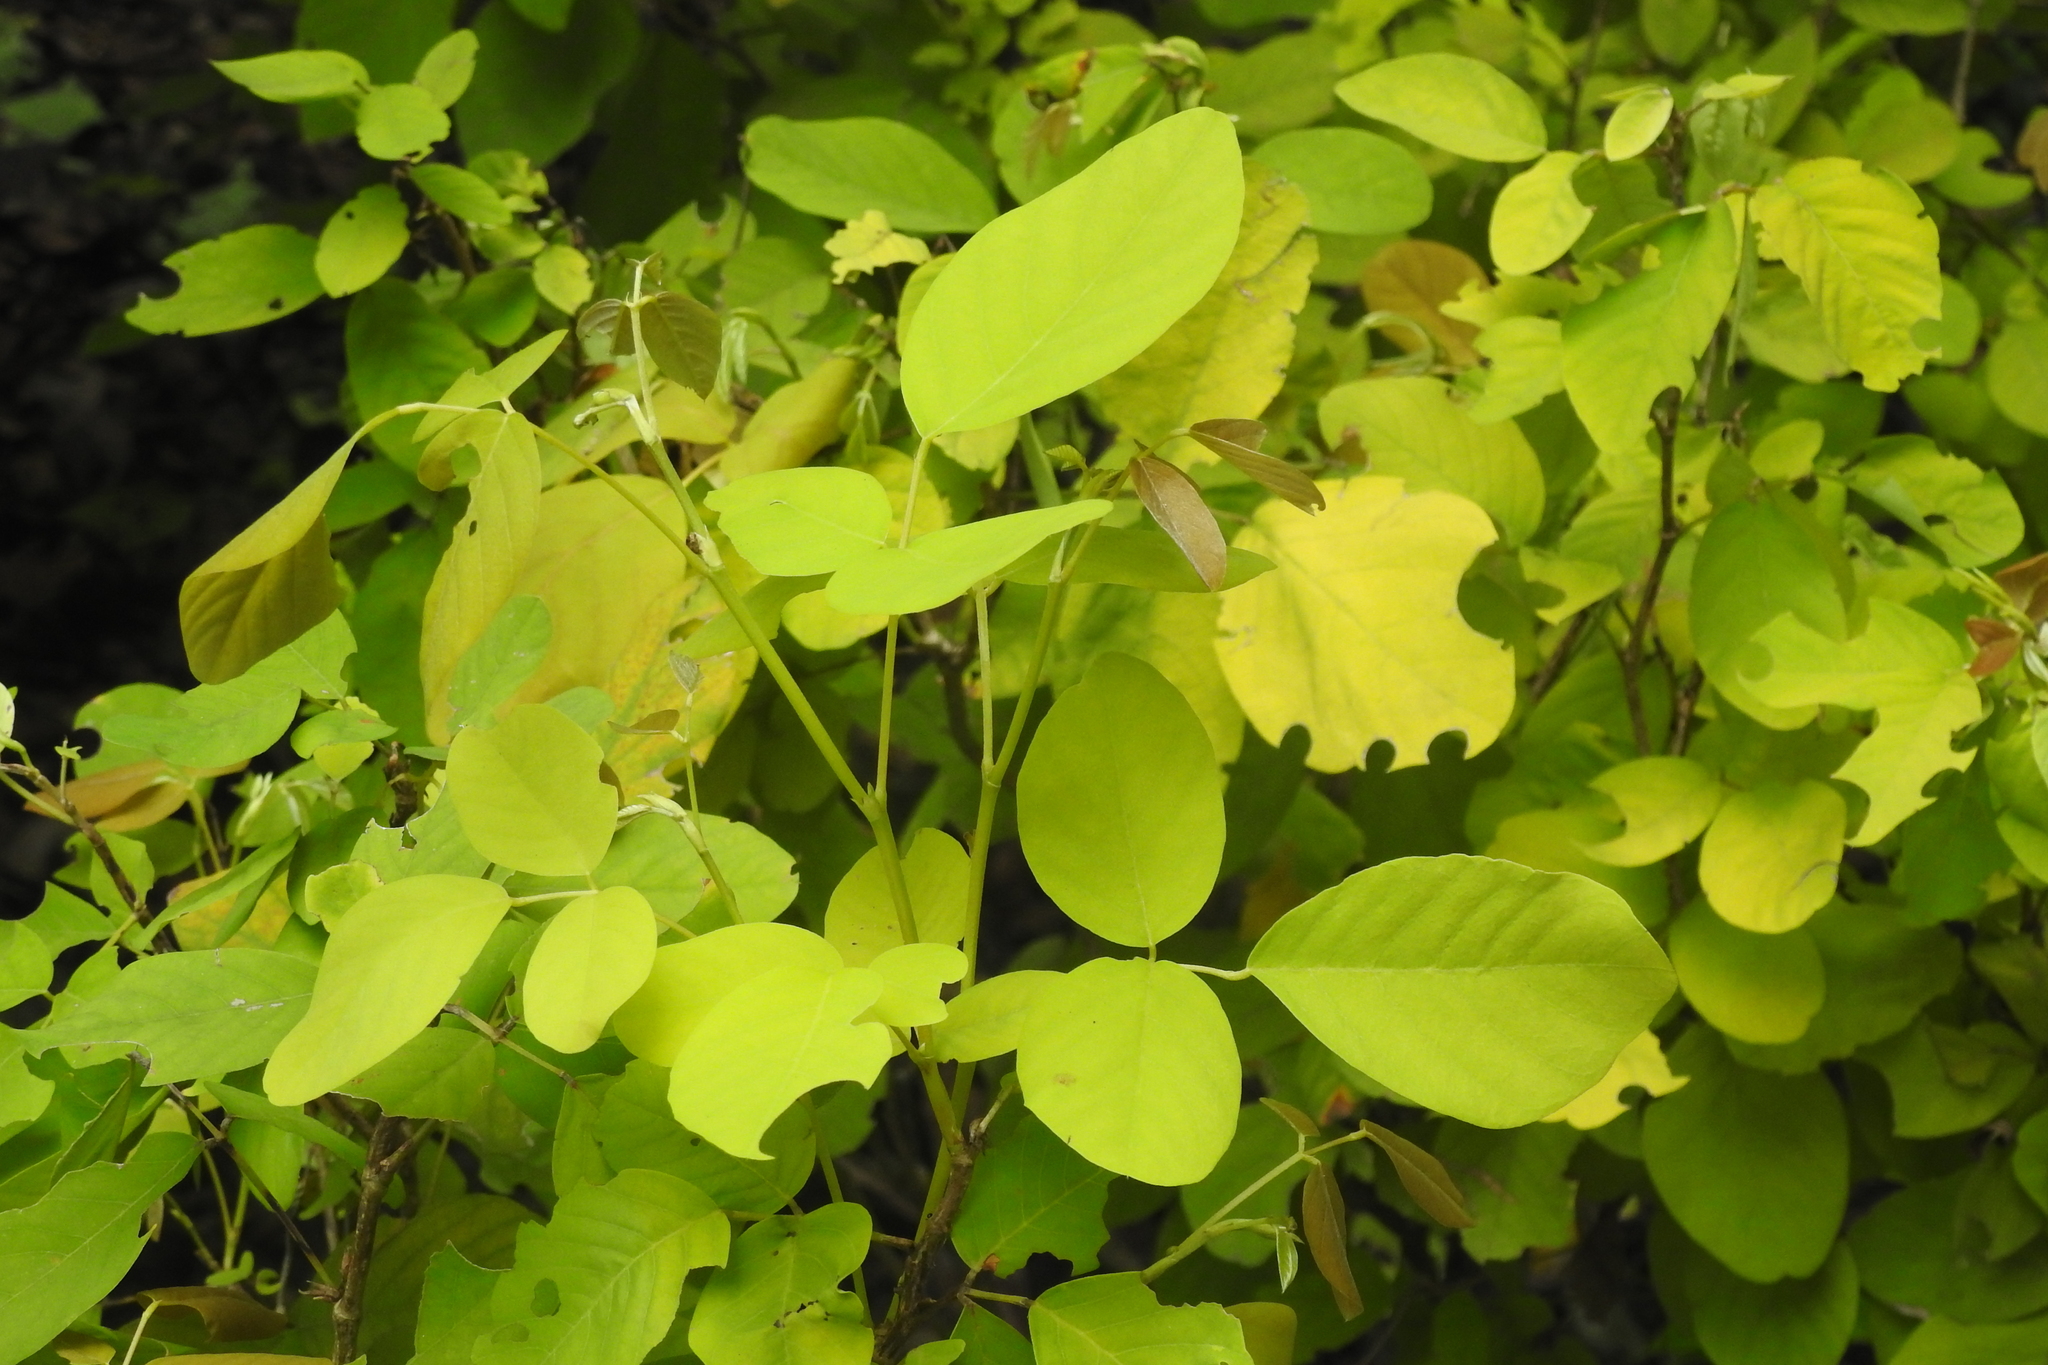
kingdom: Plantae
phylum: Tracheophyta
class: Magnoliopsida
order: Fabales
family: Fabaceae
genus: Dendrolobium
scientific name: Dendrolobium umbellatum
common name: Horsebush
